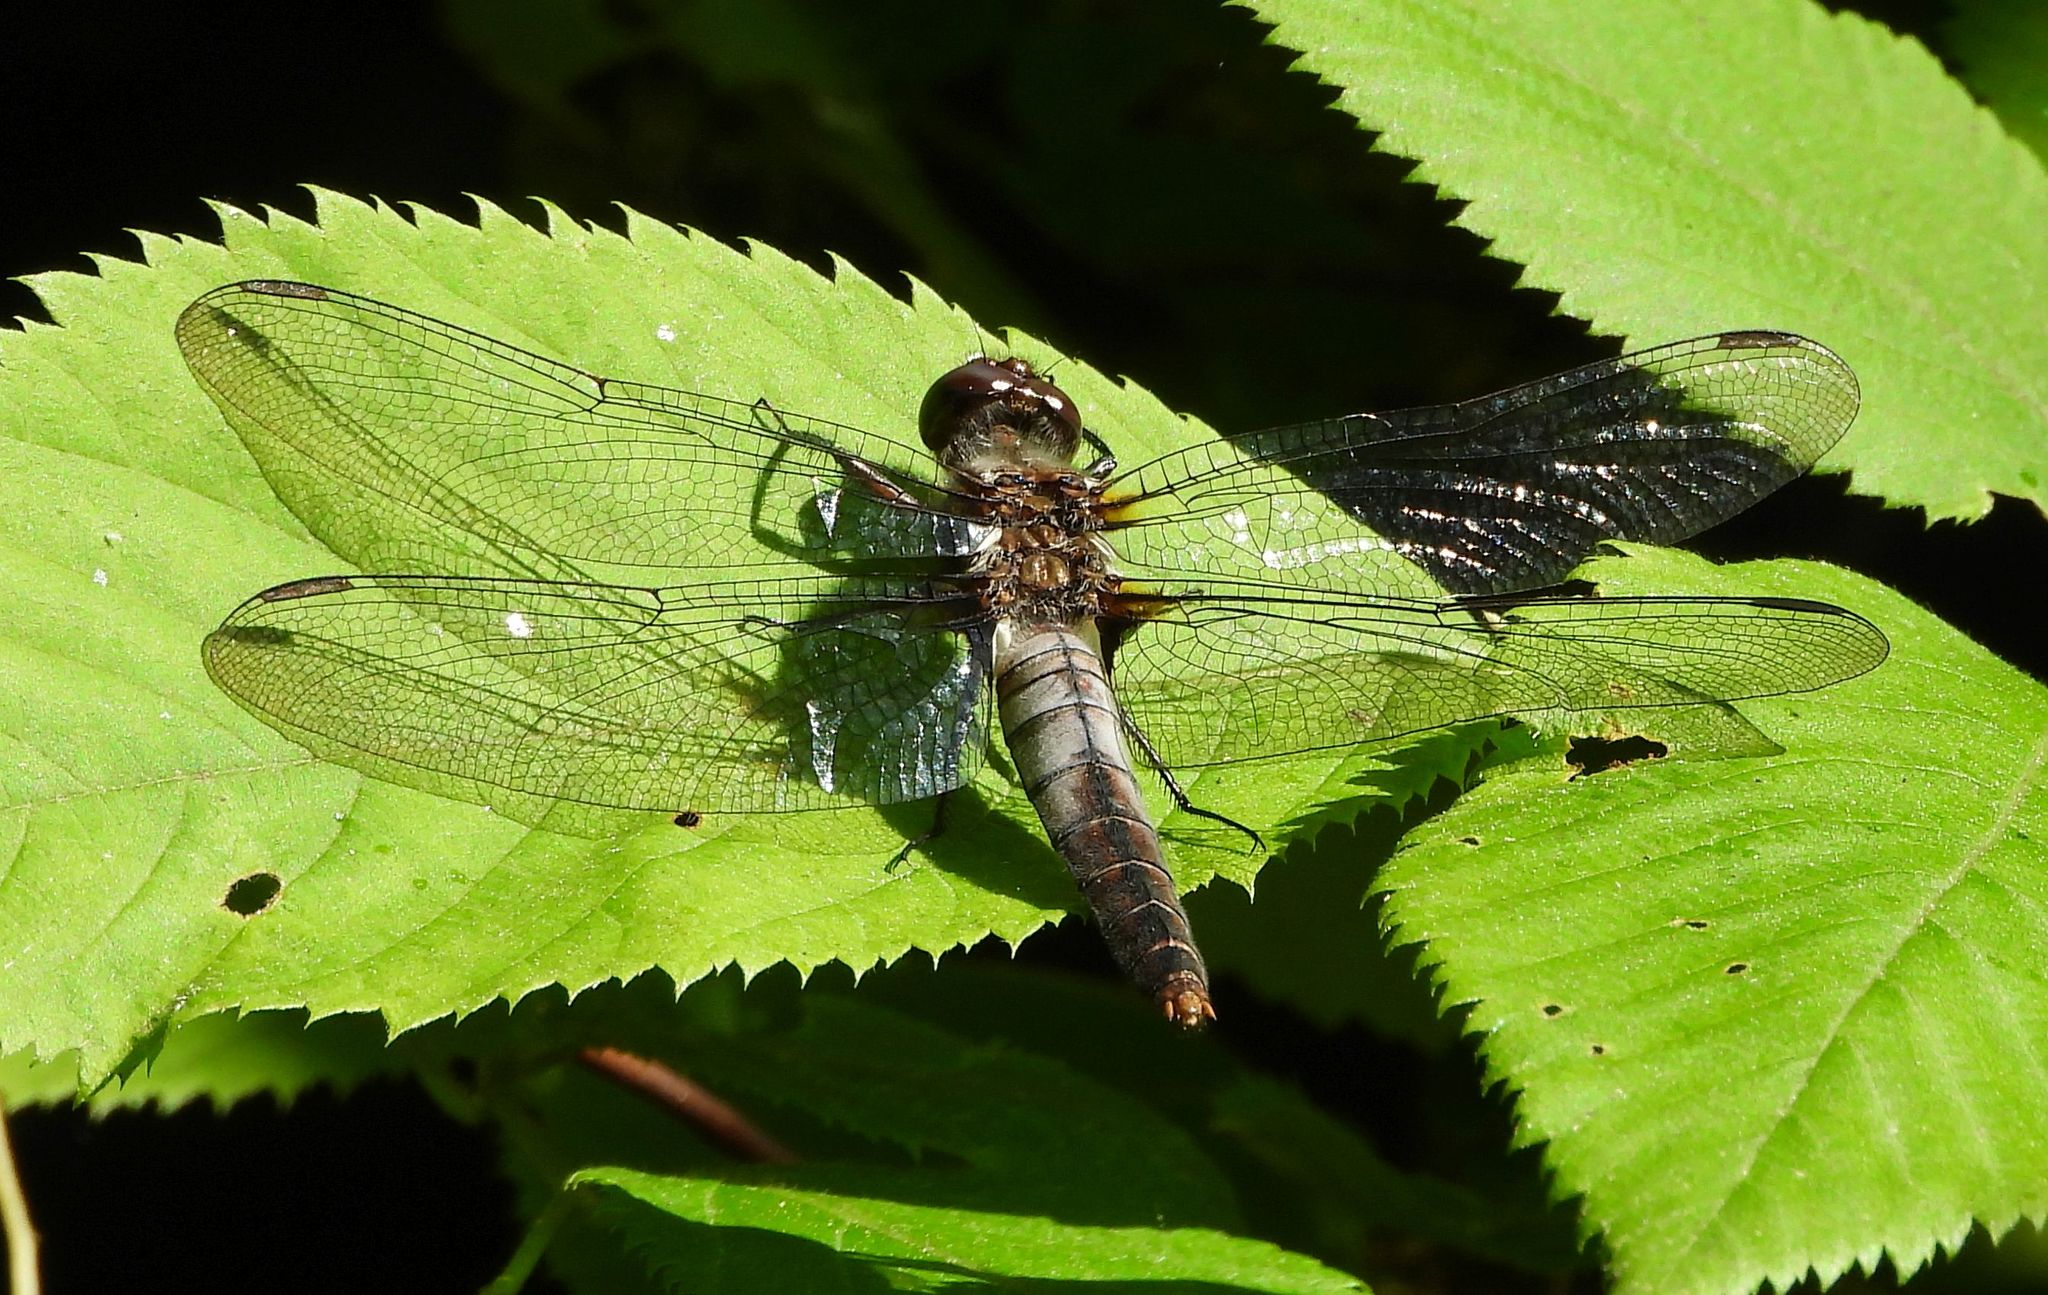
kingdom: Animalia
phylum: Arthropoda
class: Insecta
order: Odonata
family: Libellulidae
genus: Ladona
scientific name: Ladona julia
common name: Chalk-fronted corporal
